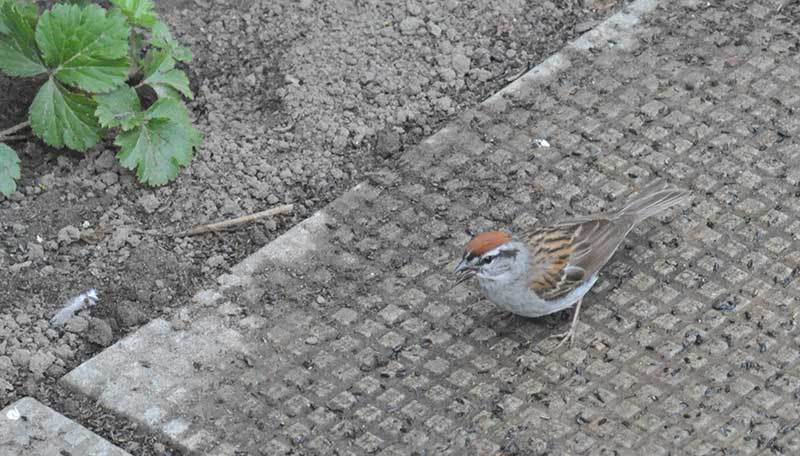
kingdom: Animalia
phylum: Chordata
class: Aves
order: Passeriformes
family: Passerellidae
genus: Spizella
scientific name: Spizella passerina
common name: Chipping sparrow
